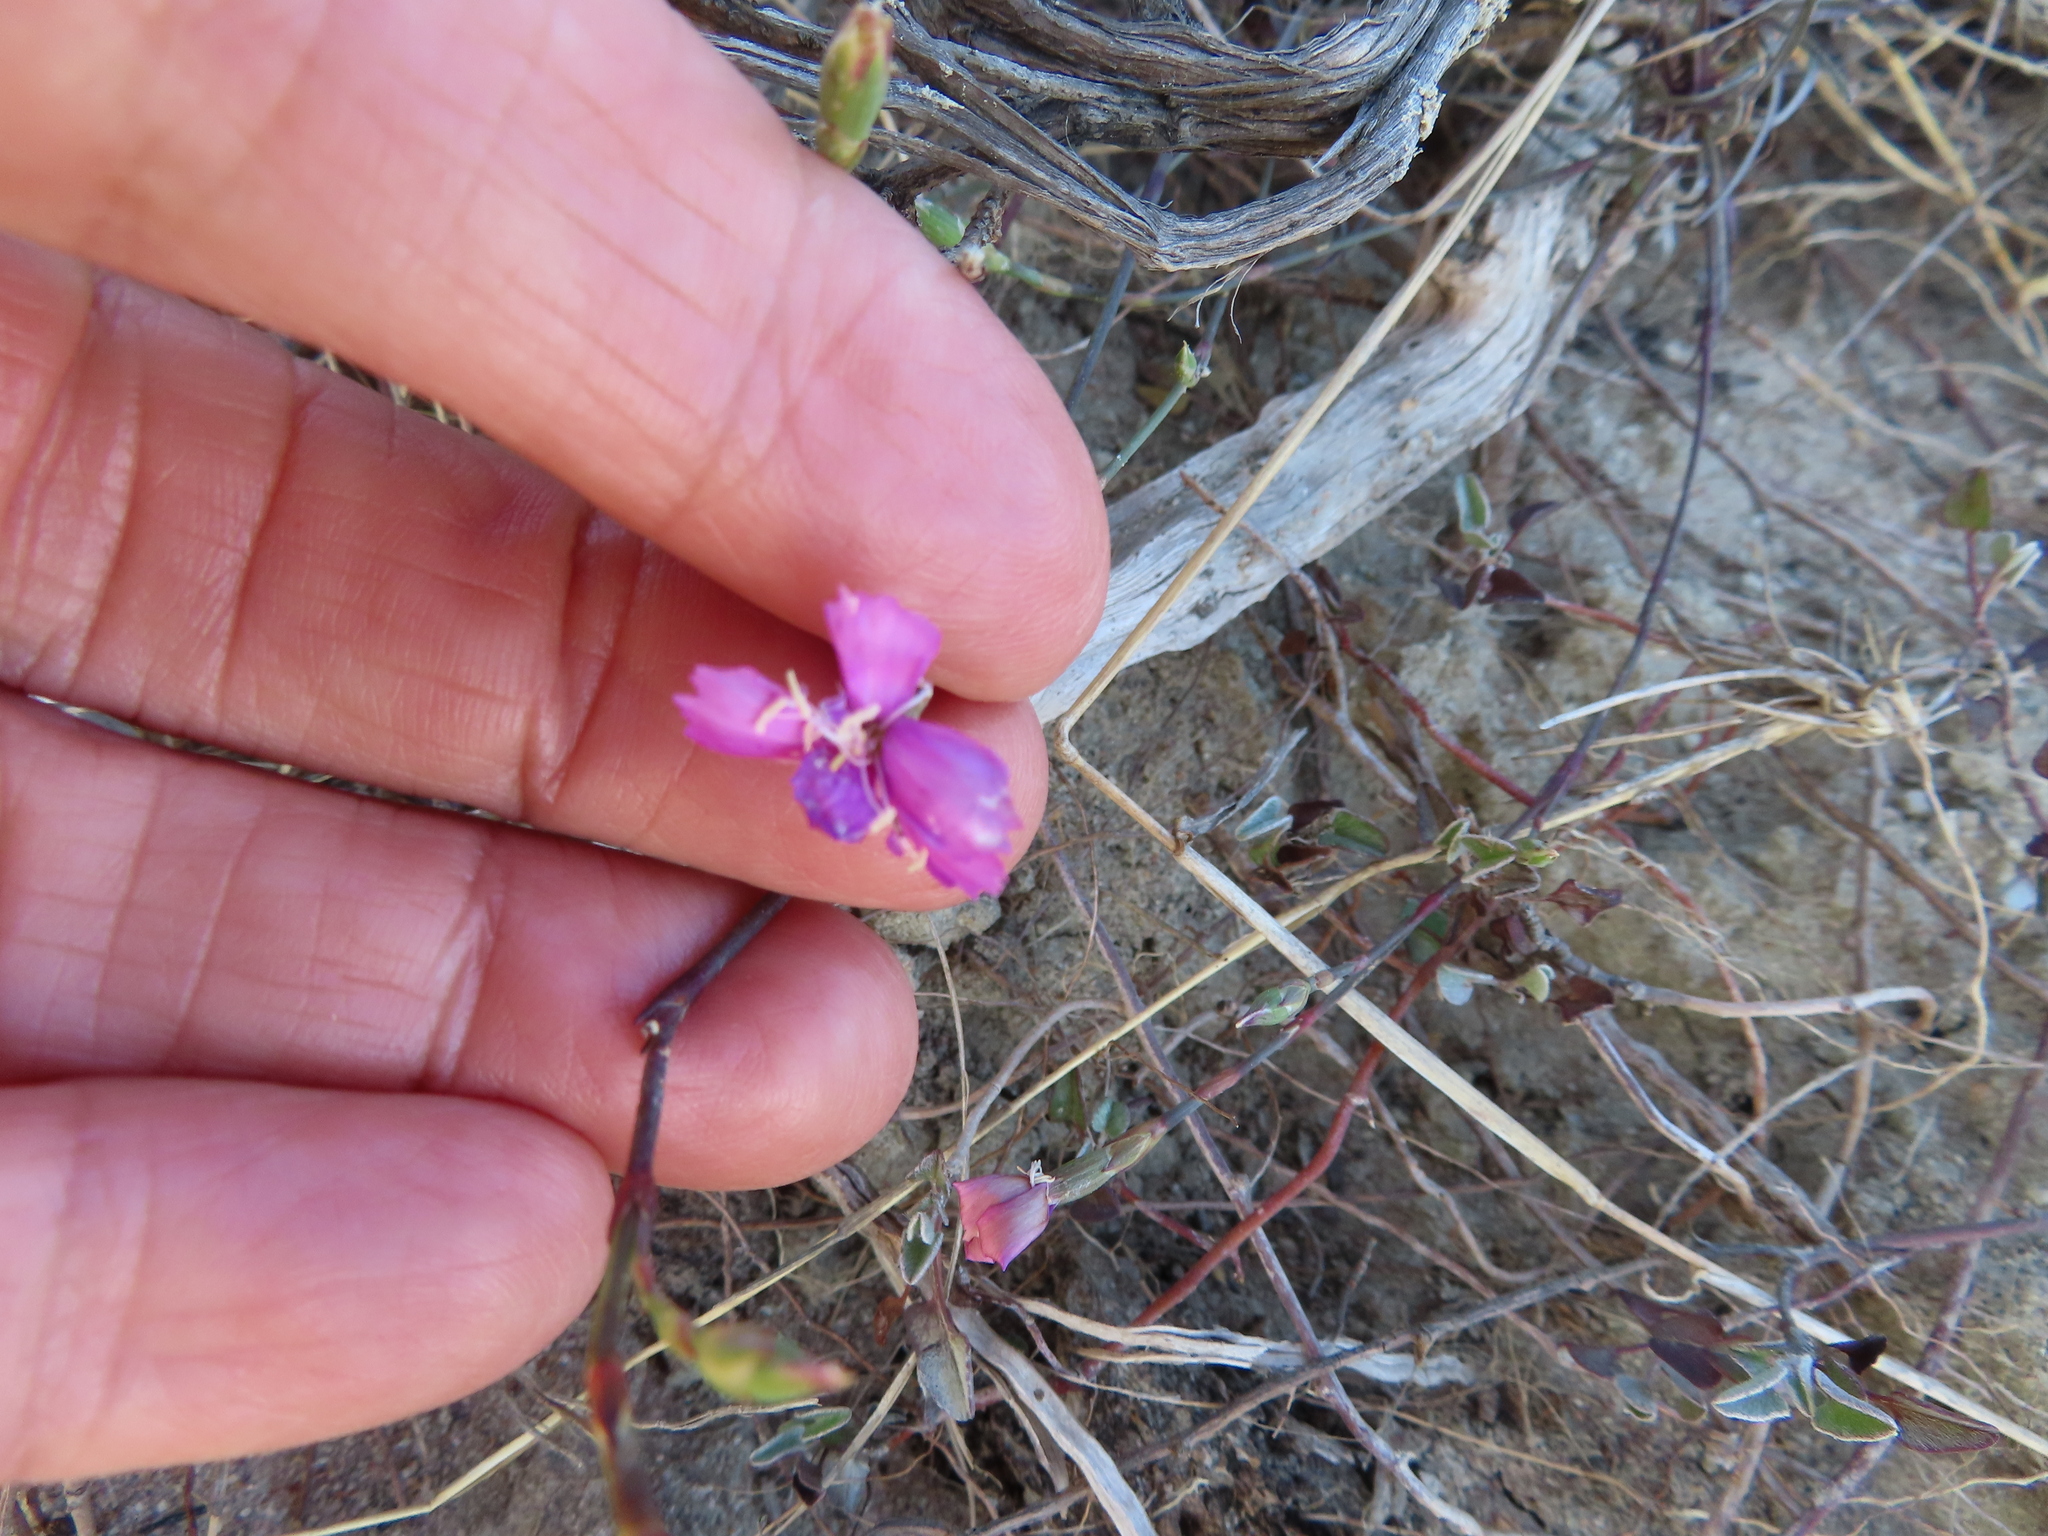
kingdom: Plantae
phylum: Tracheophyta
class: Magnoliopsida
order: Caryophyllales
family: Caryophyllaceae
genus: Dianthus
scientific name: Dianthus albens
